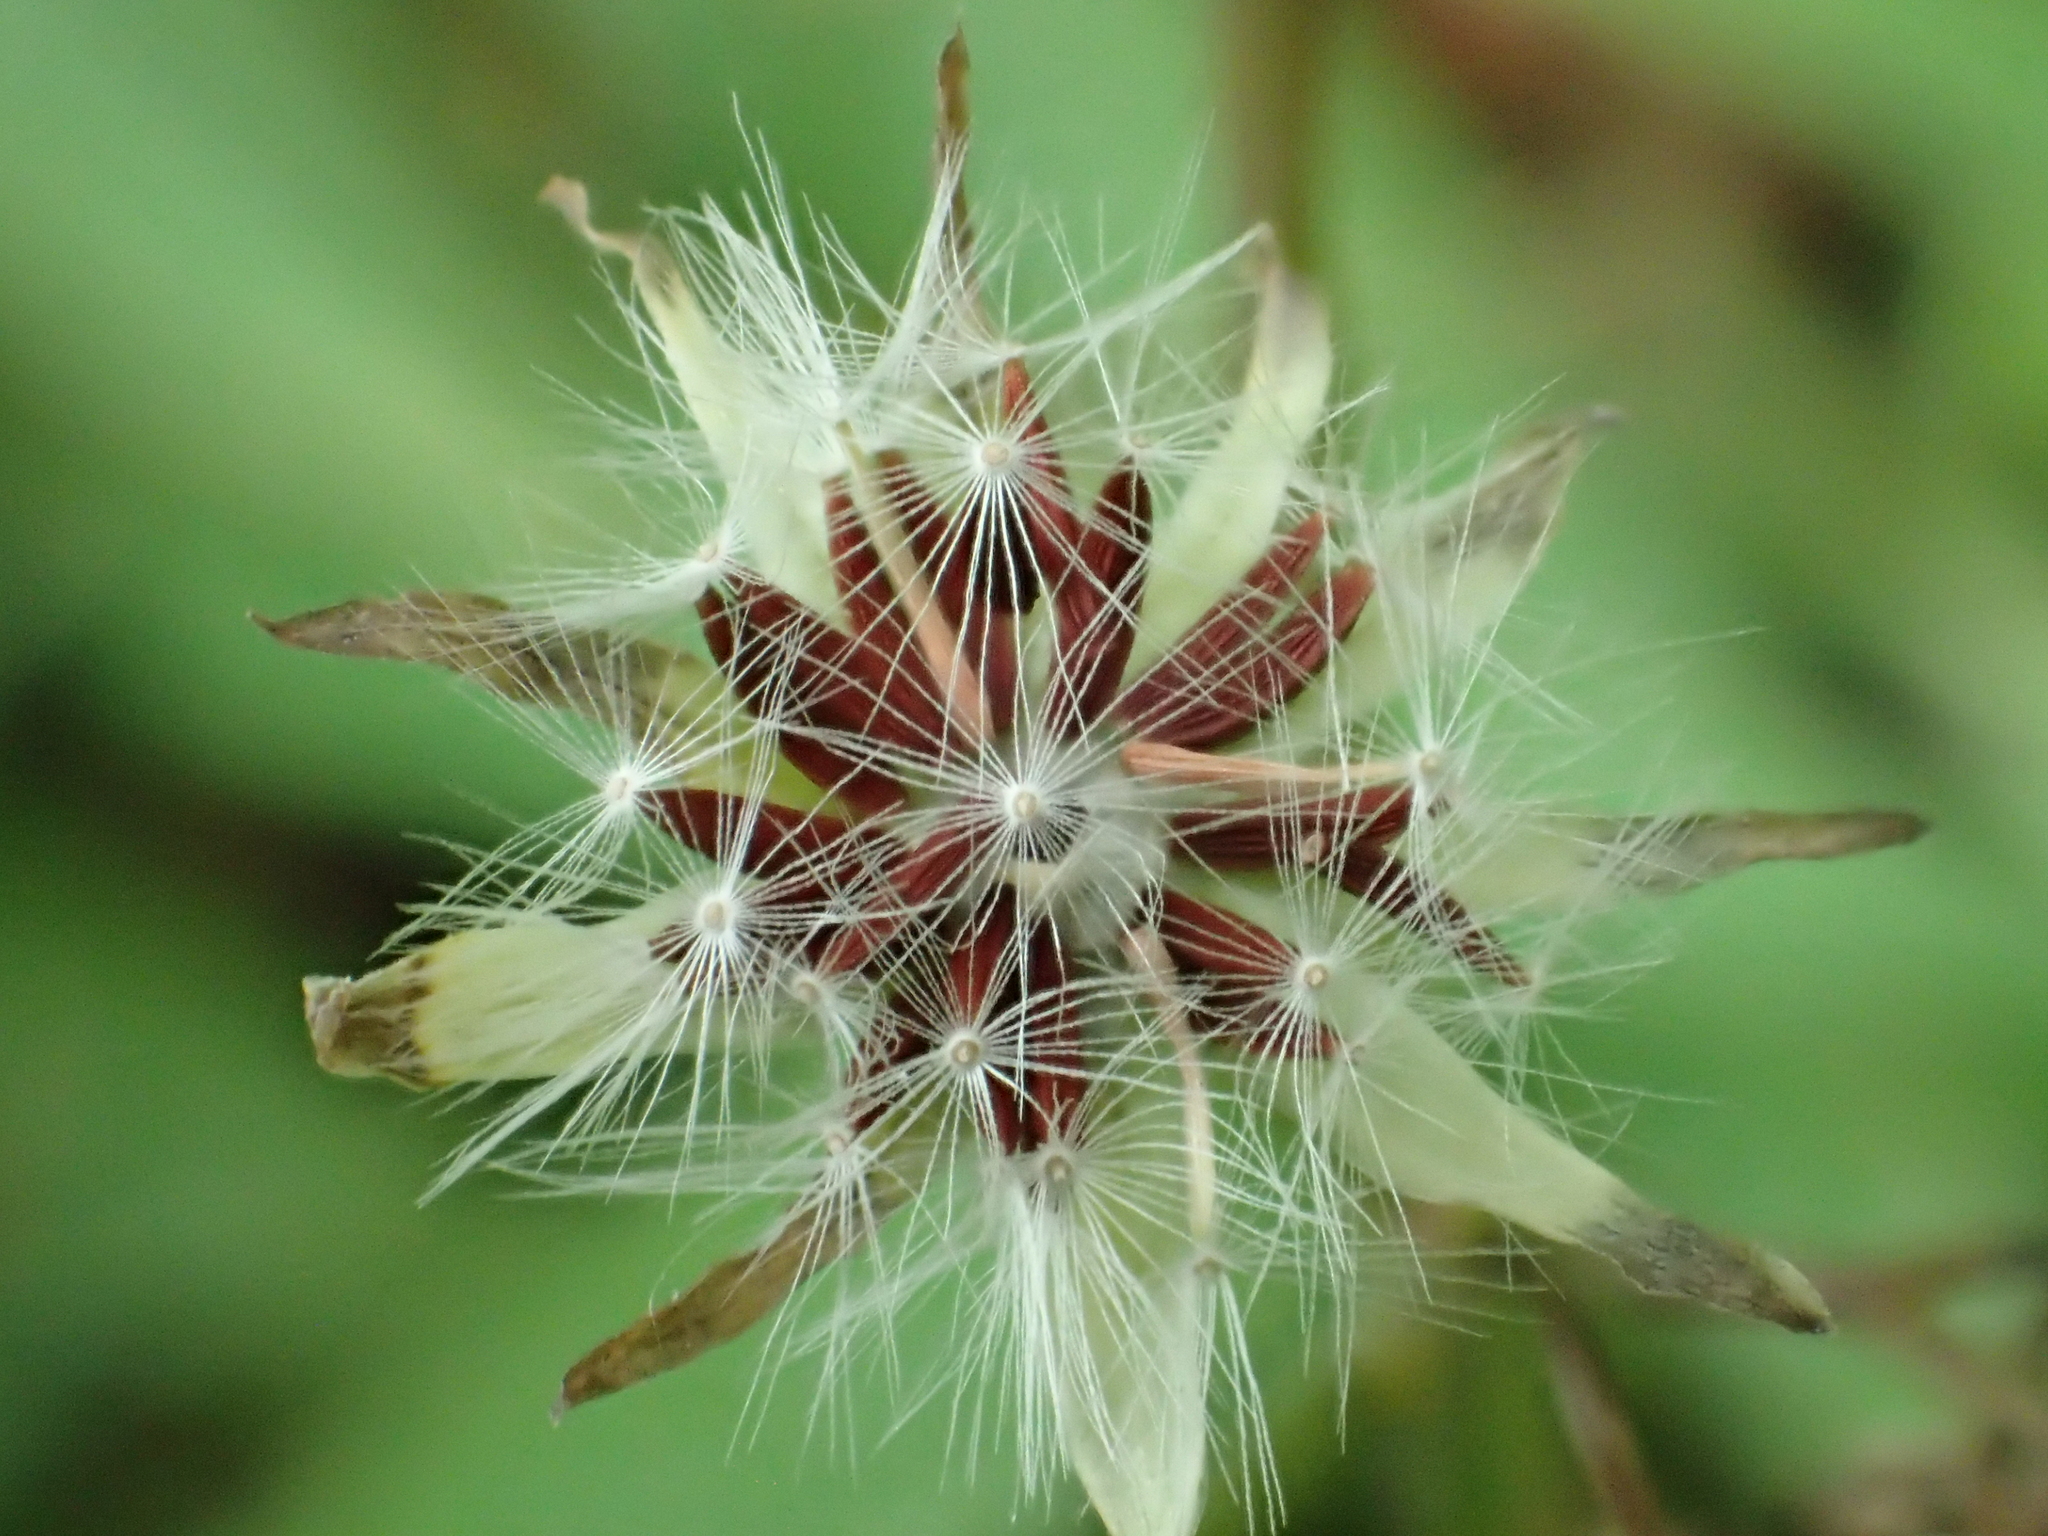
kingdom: Plantae
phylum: Tracheophyta
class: Magnoliopsida
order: Asterales
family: Asteraceae
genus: Youngia
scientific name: Youngia japonica
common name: Oriental false hawksbeard
